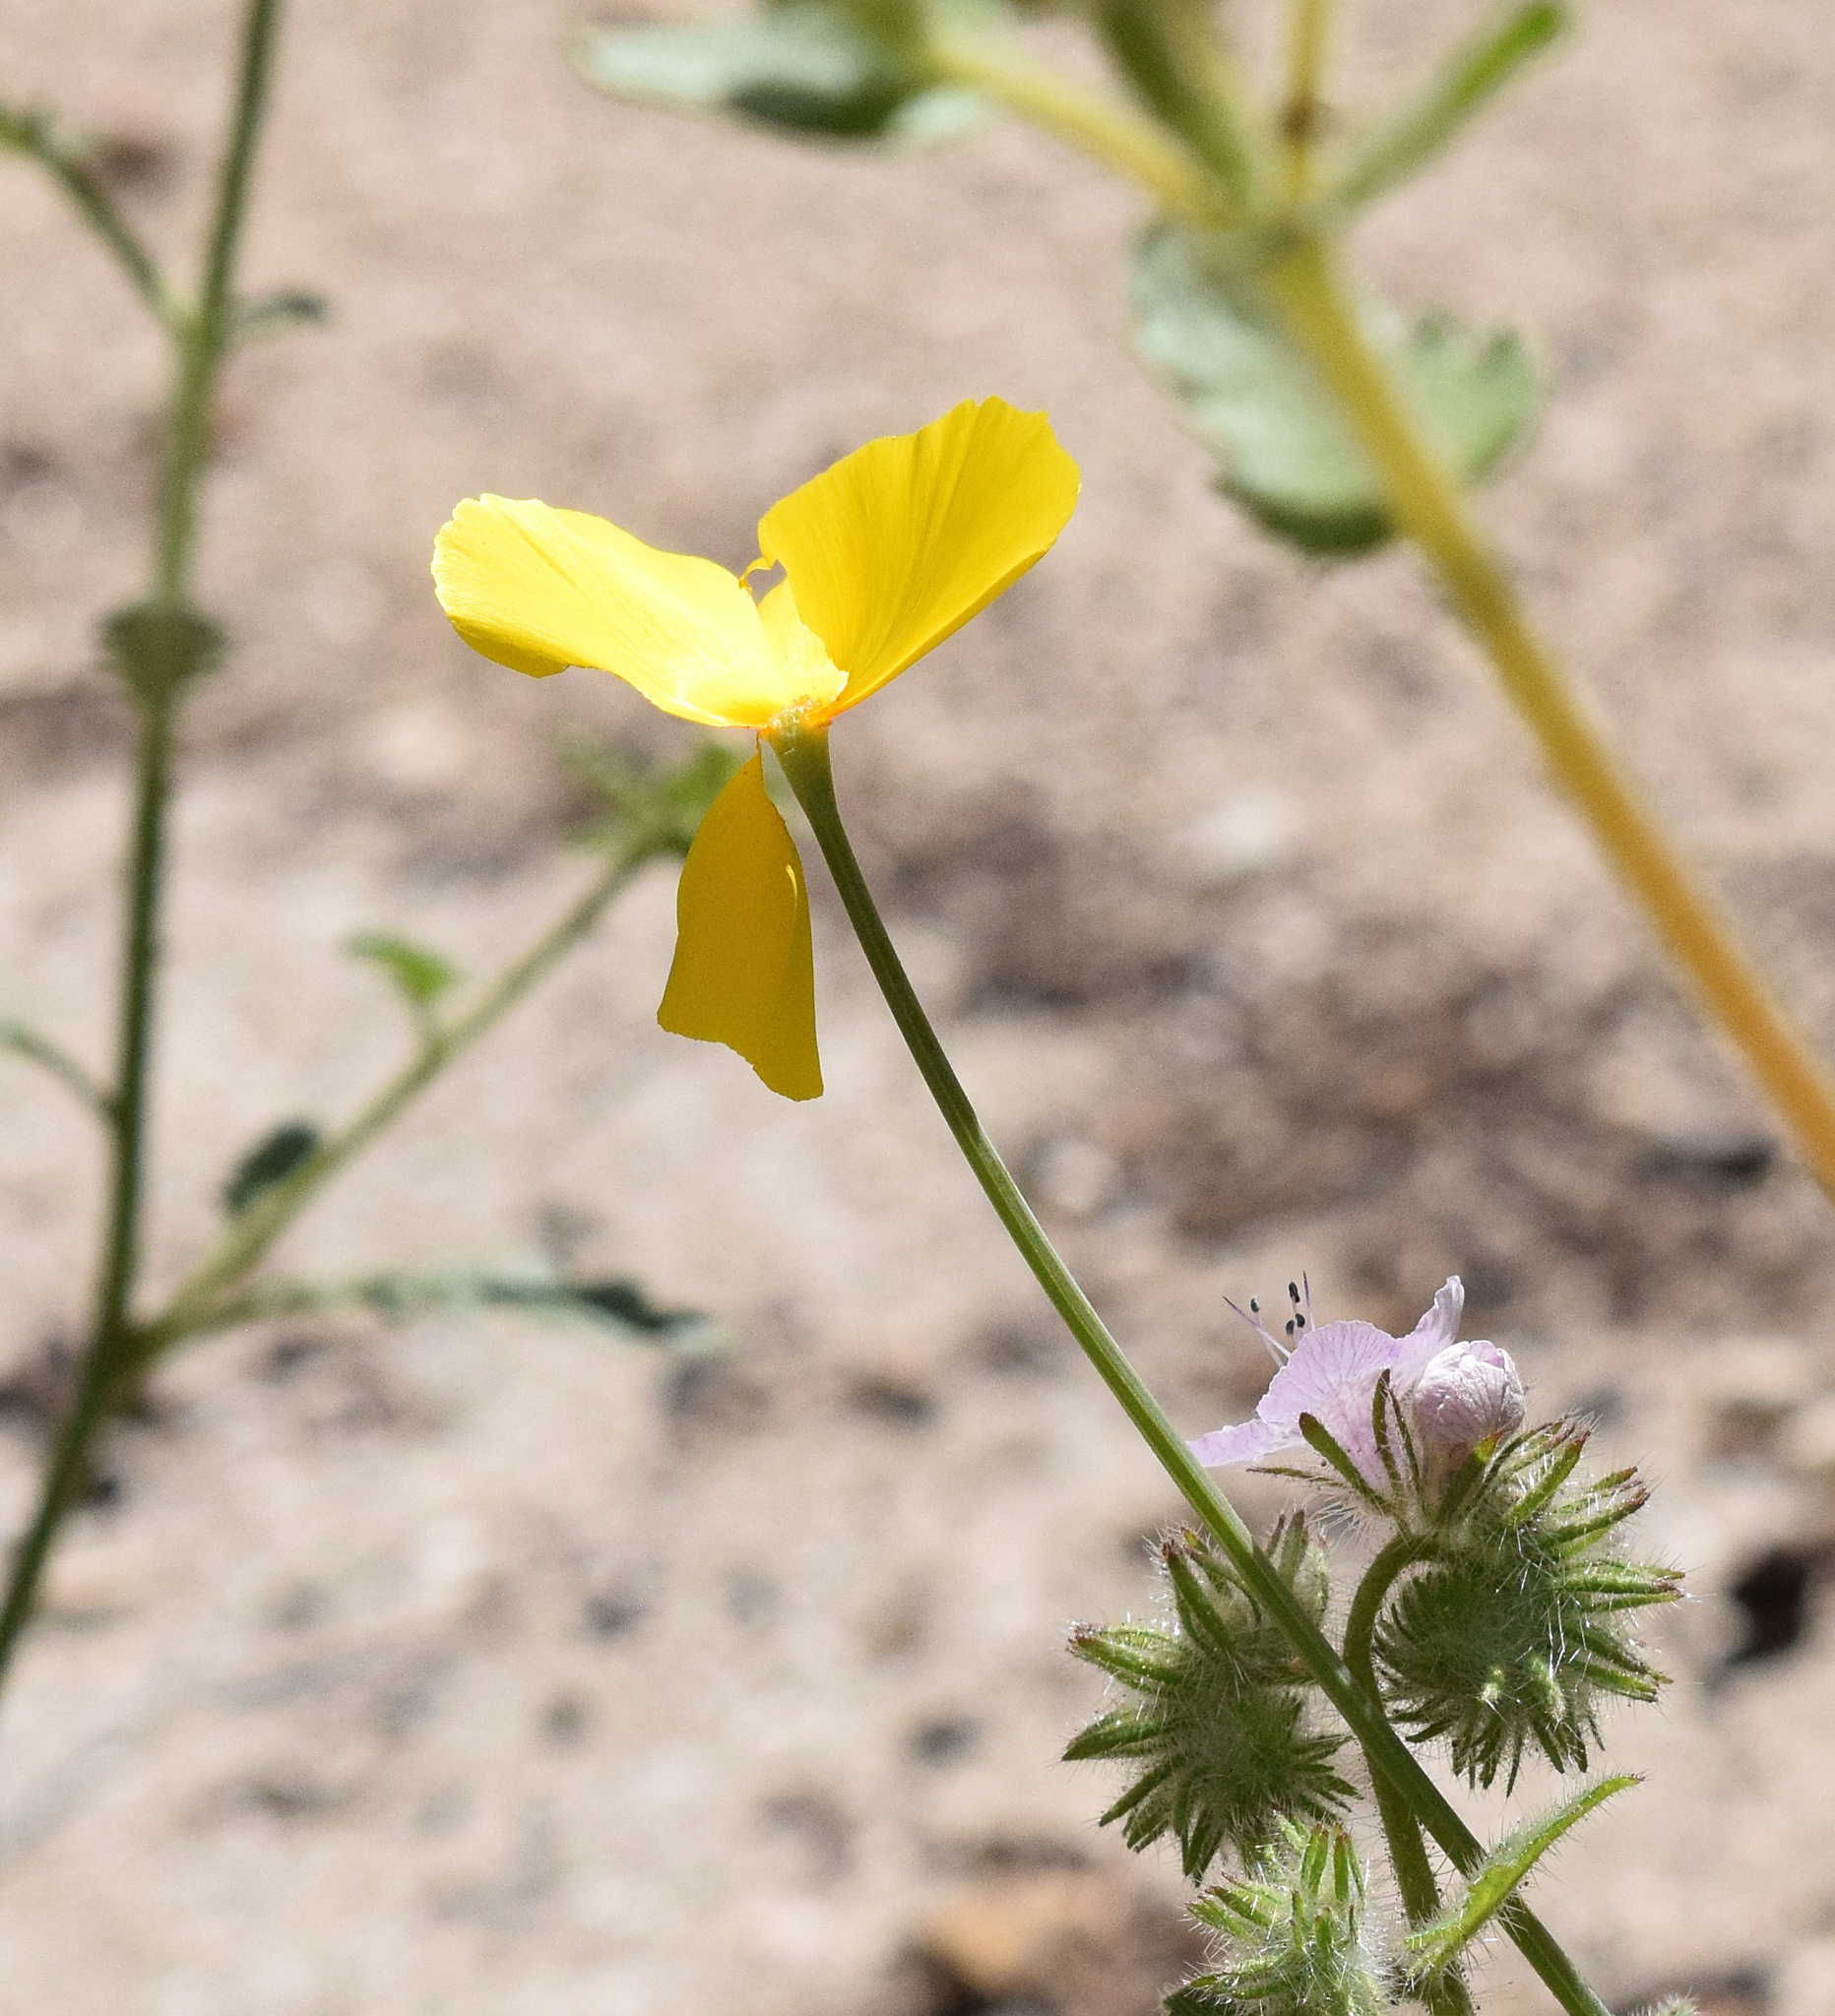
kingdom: Plantae
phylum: Tracheophyta
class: Magnoliopsida
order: Ranunculales
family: Papaveraceae
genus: Eschscholzia
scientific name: Eschscholzia caespitosa
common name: Tufted california-poppy
